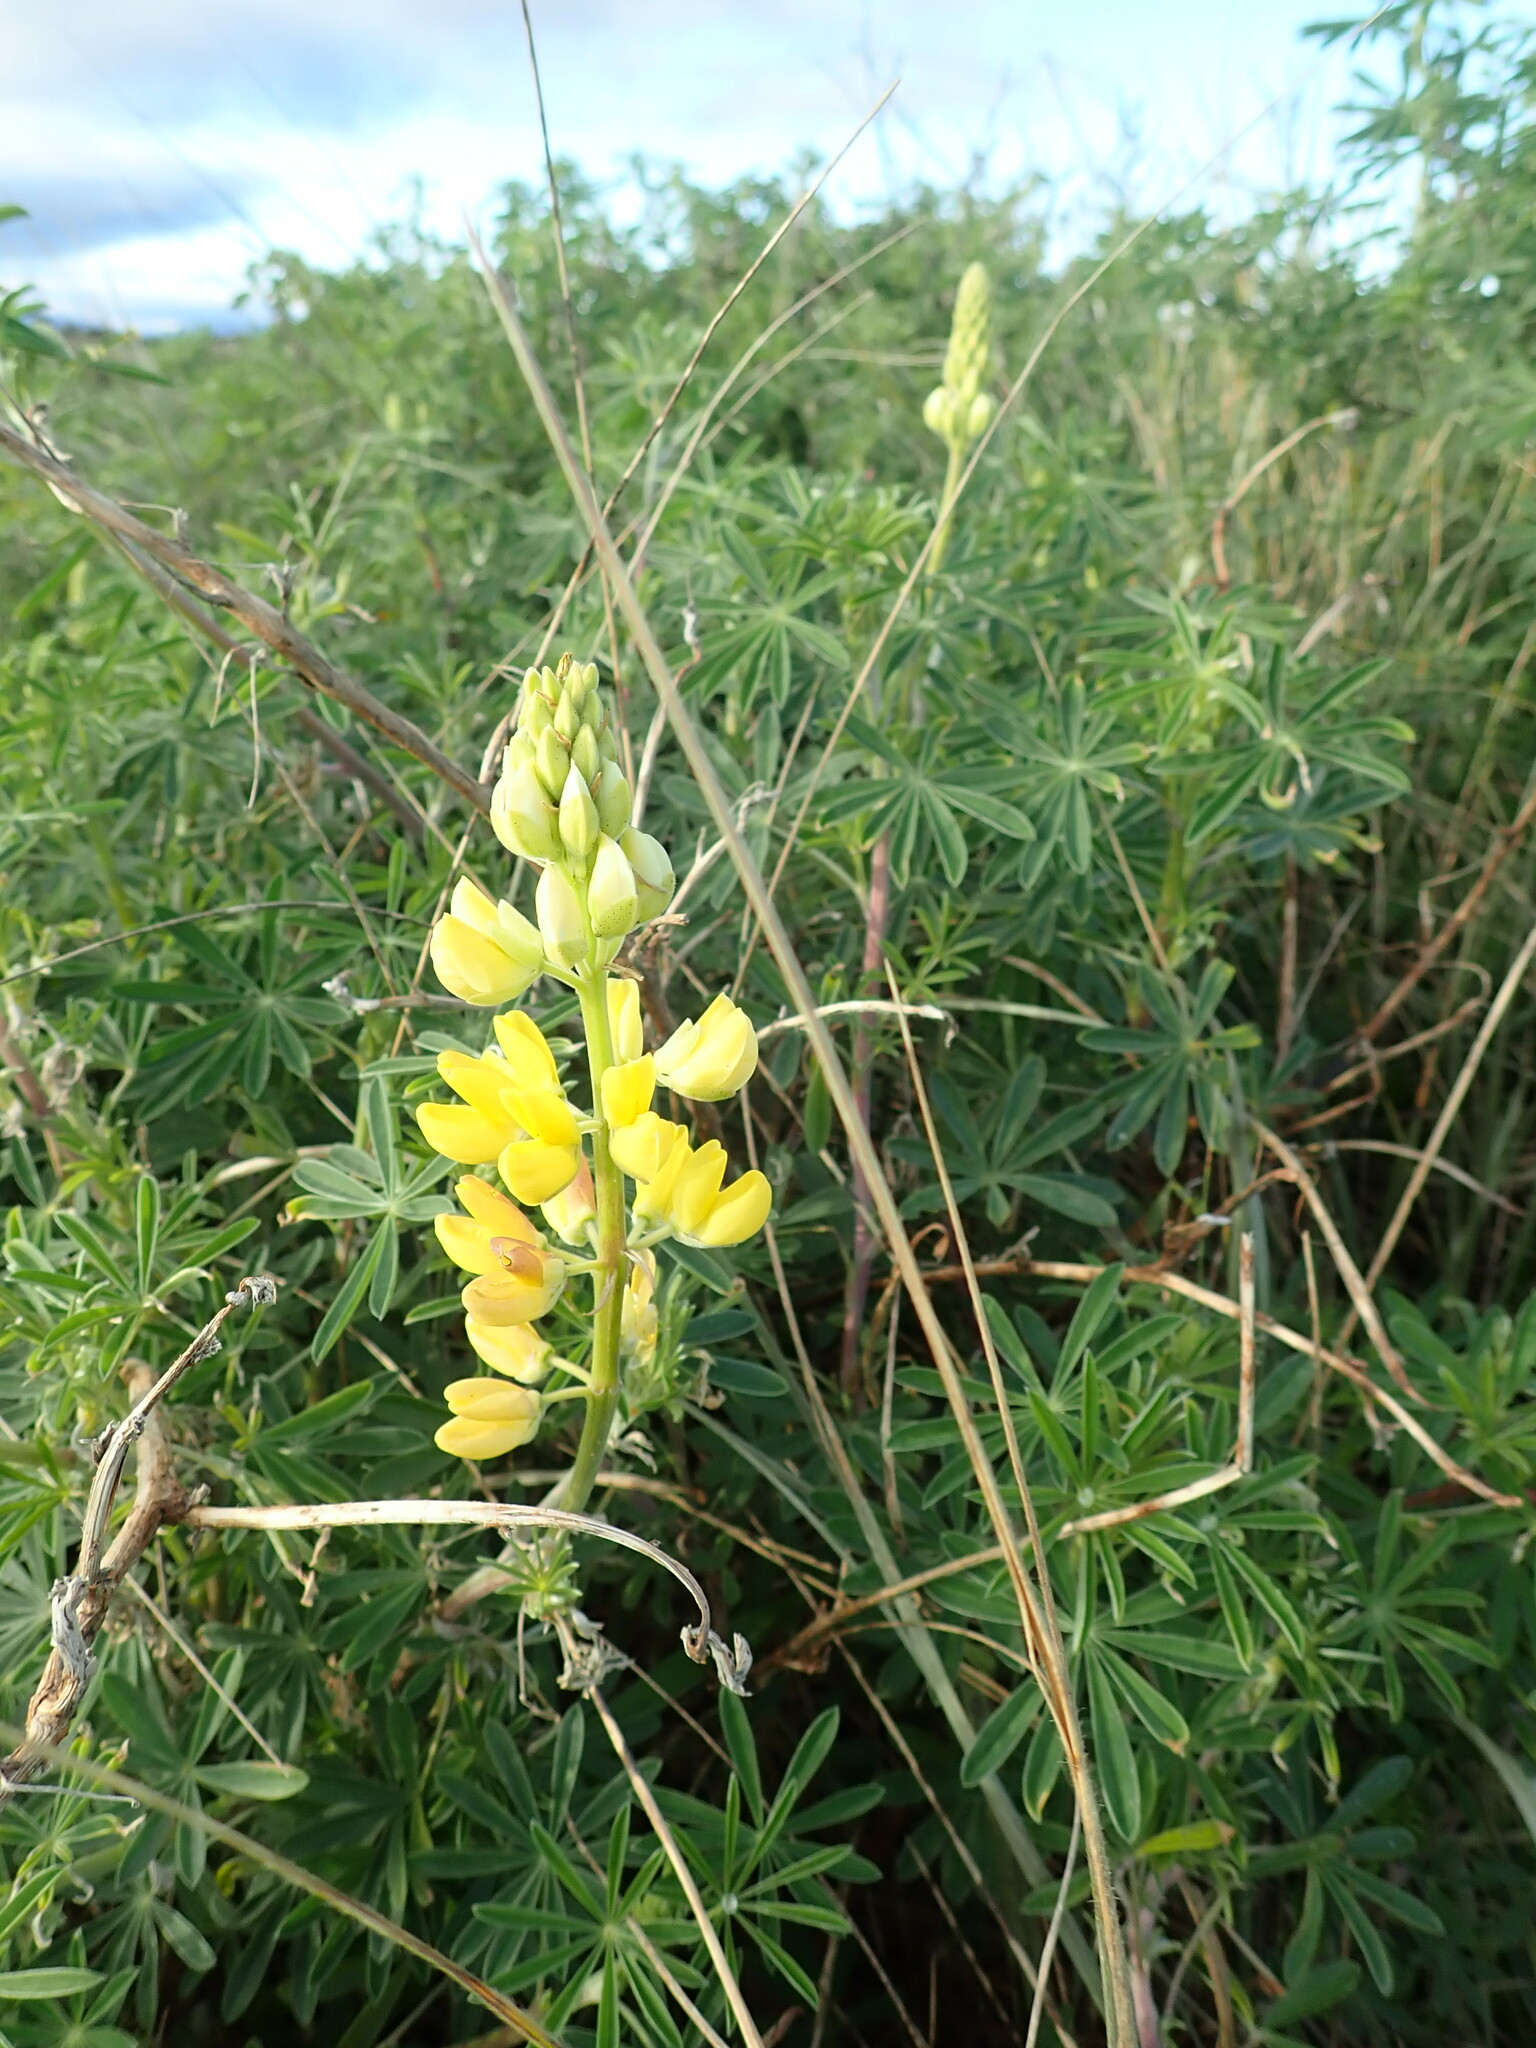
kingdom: Plantae
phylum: Tracheophyta
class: Magnoliopsida
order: Fabales
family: Fabaceae
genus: Lupinus
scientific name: Lupinus arboreus
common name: Yellow bush lupine
